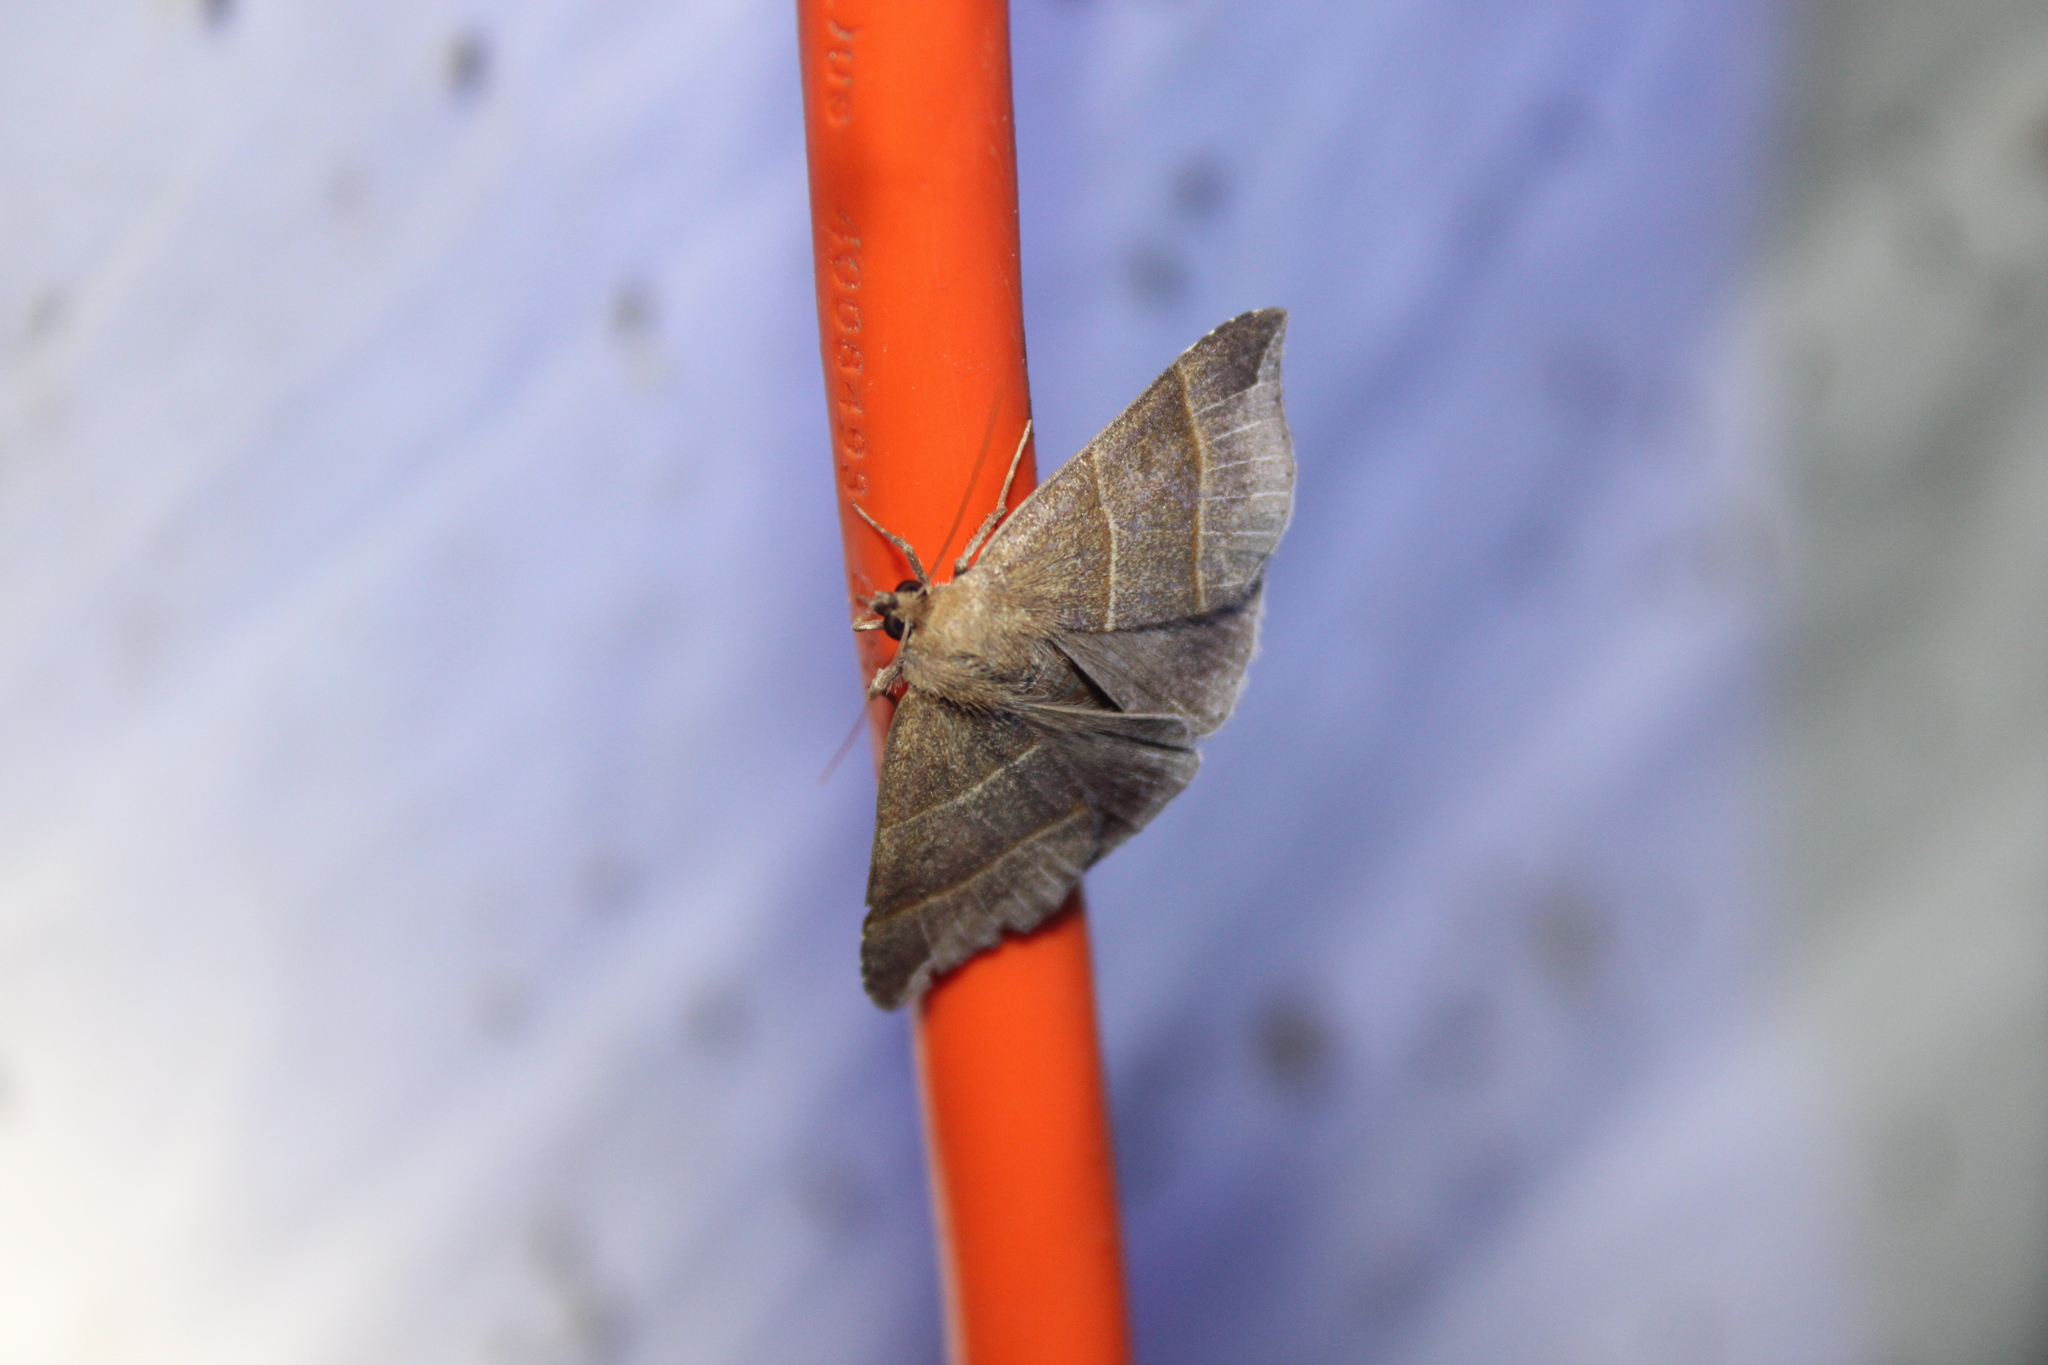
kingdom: Animalia
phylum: Arthropoda
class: Insecta
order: Lepidoptera
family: Erebidae
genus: Parallelia
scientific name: Parallelia bistriaris
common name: Maple looper moth
